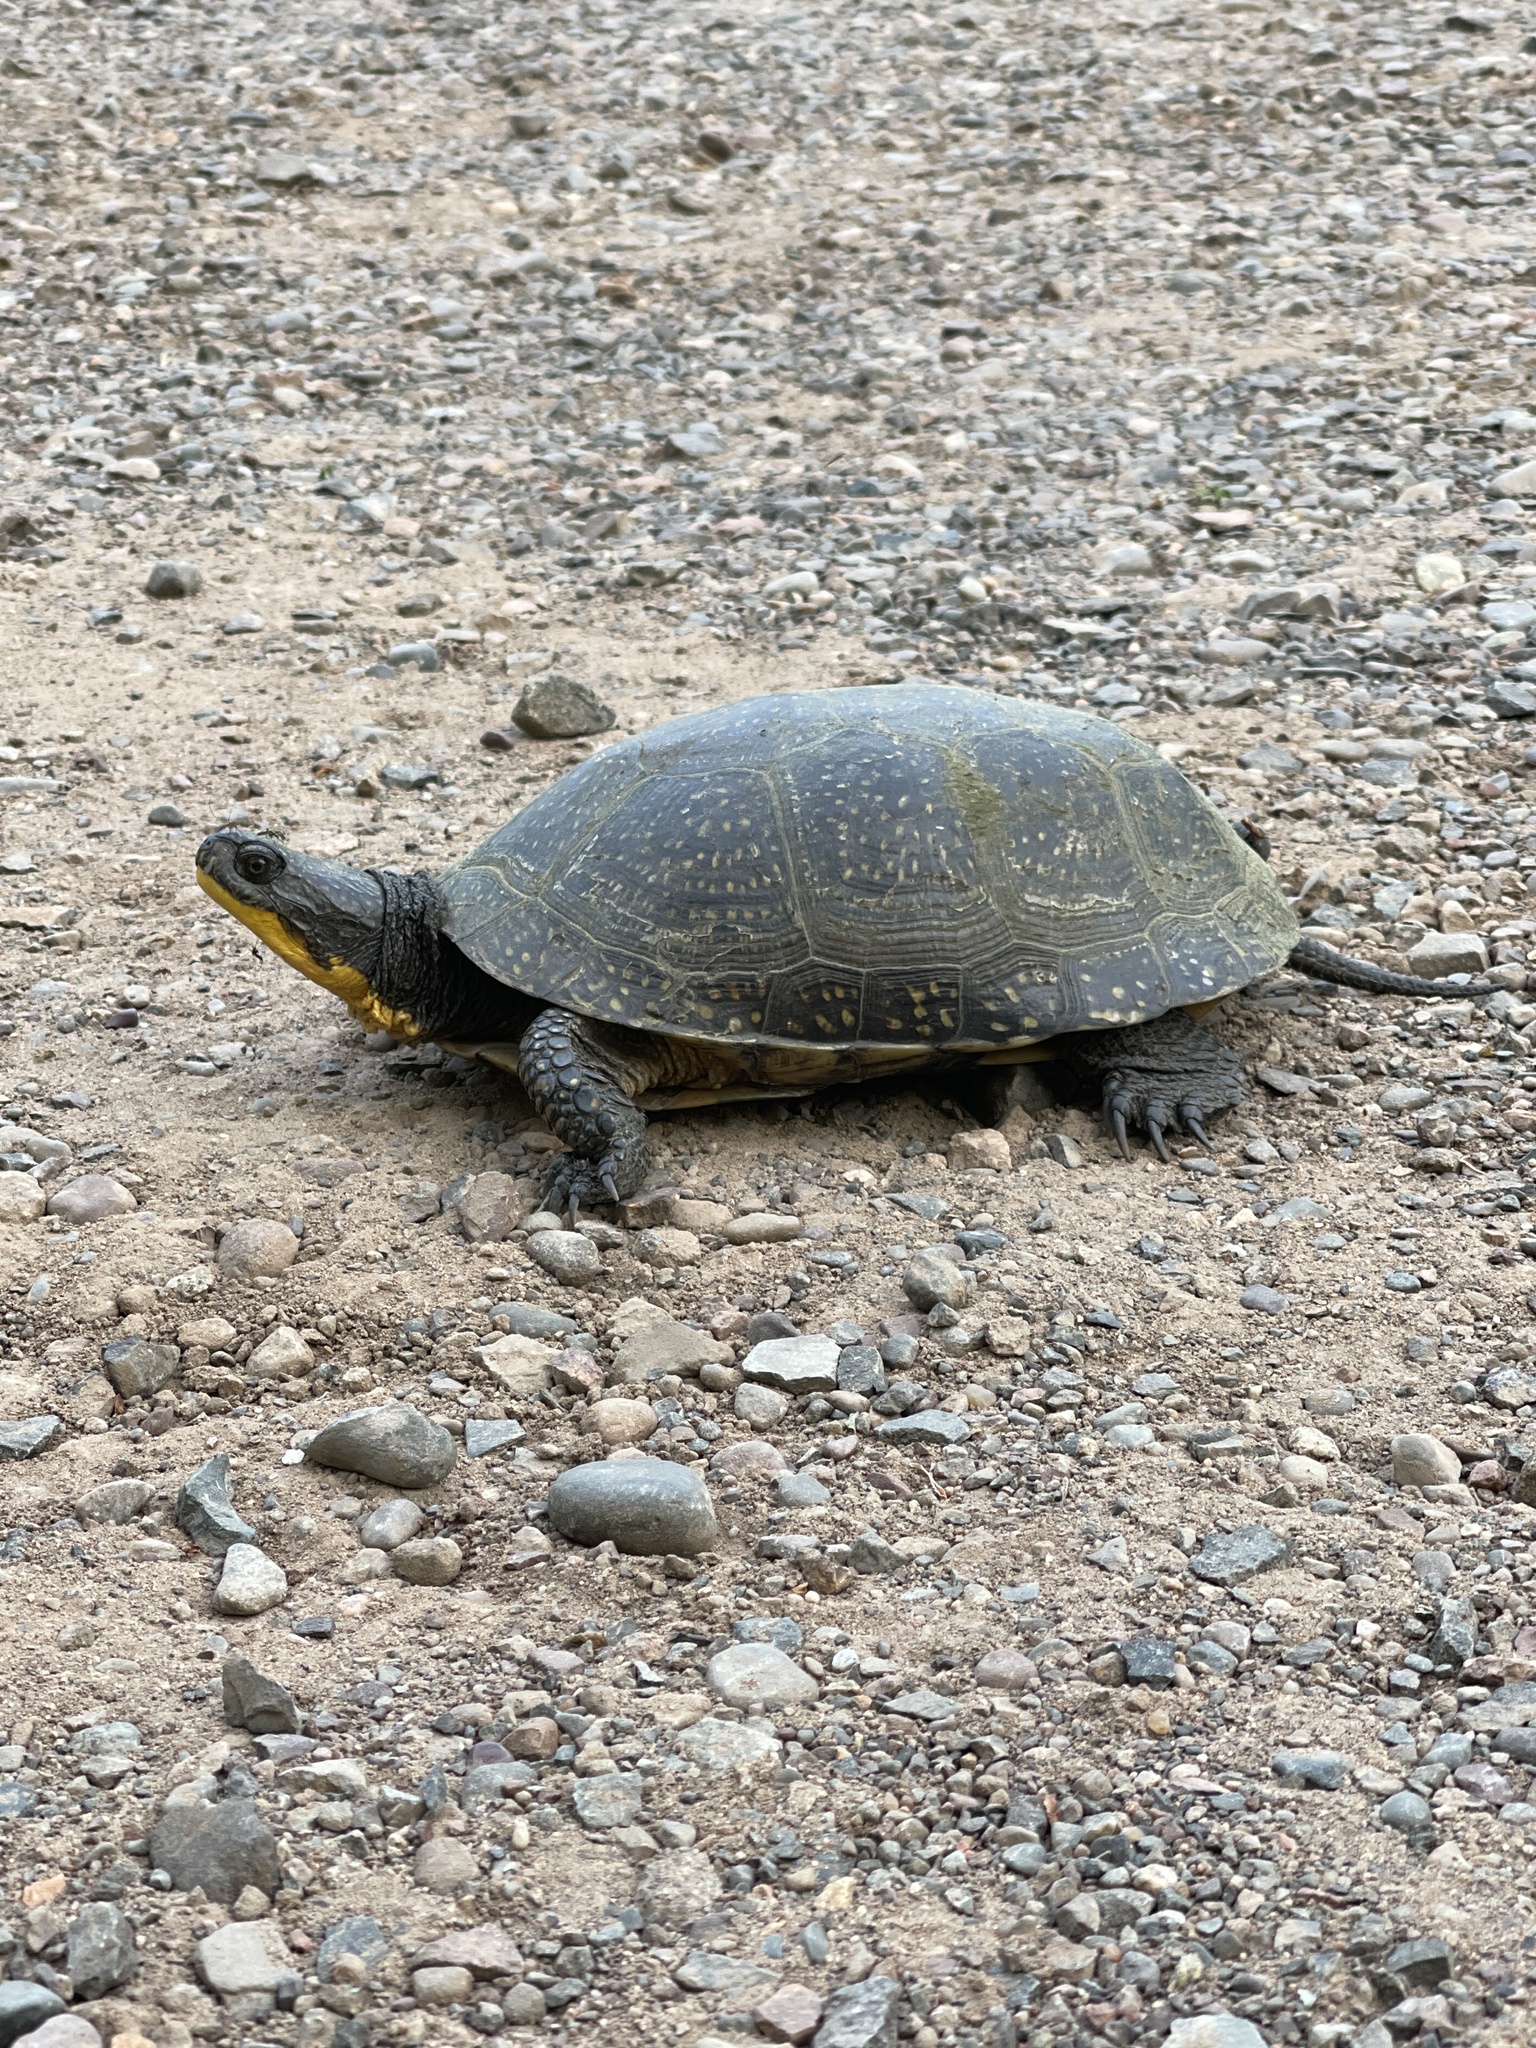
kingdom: Animalia
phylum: Chordata
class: Testudines
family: Emydidae
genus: Emys
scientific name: Emys blandingii
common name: Blanding's turtle
